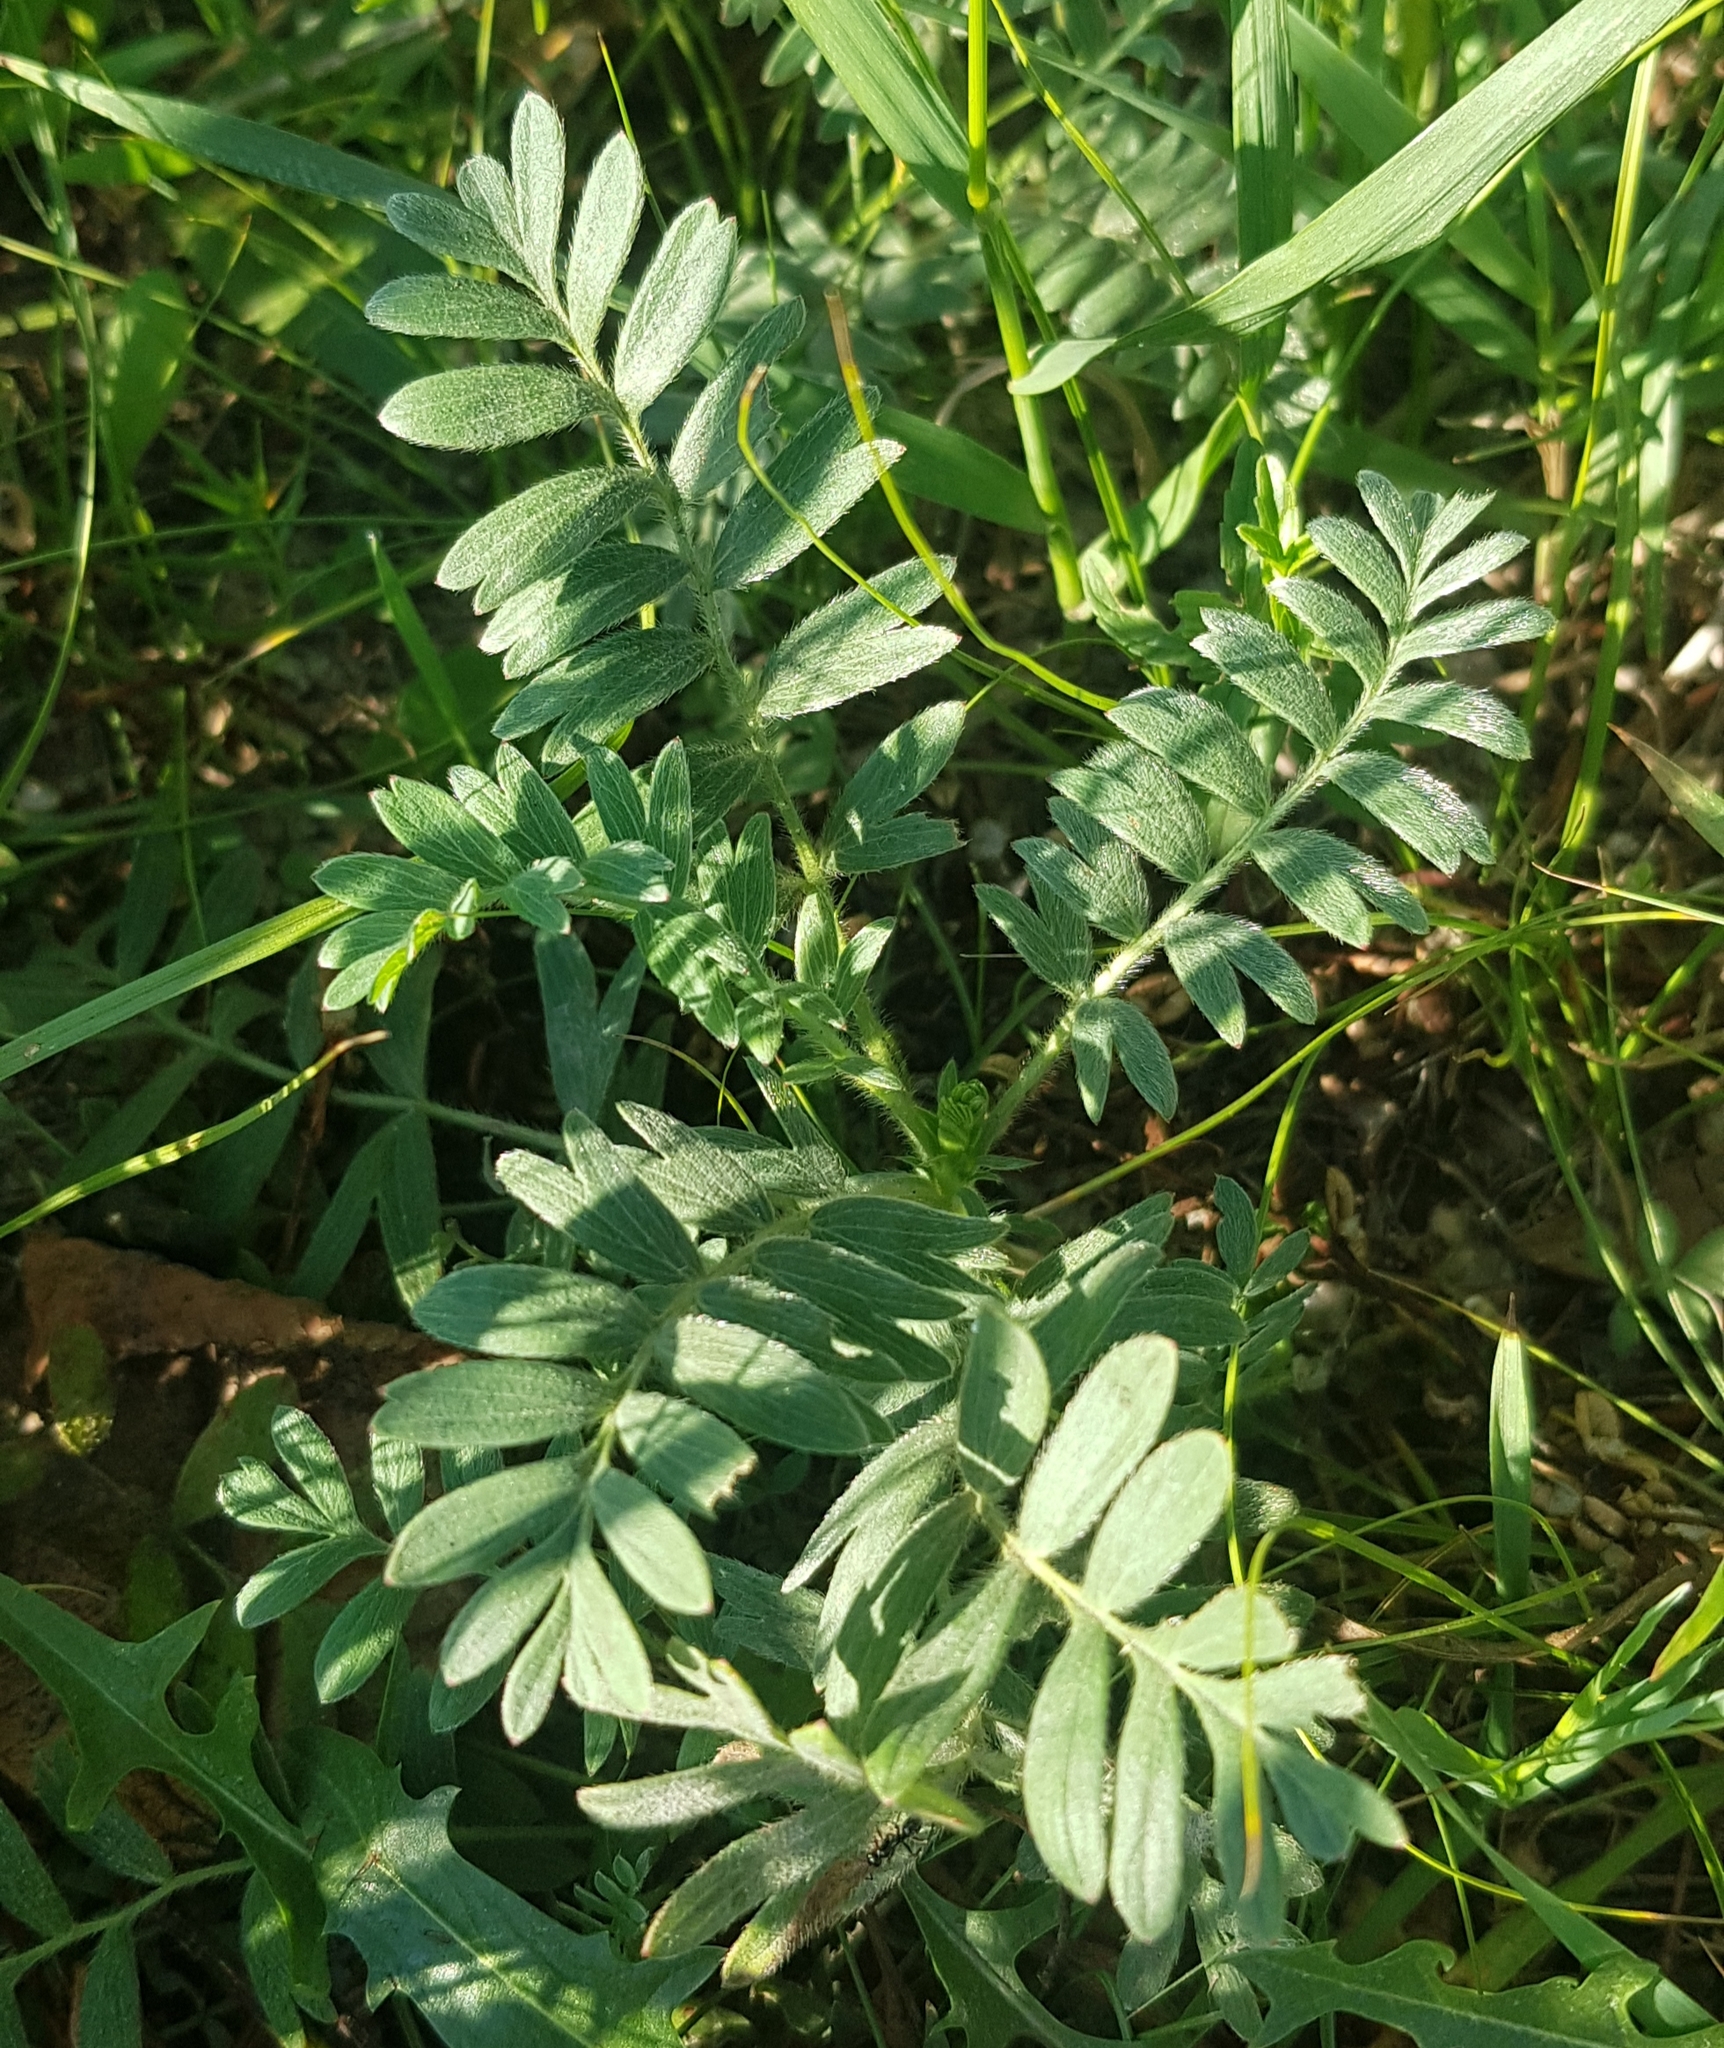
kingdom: Plantae
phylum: Tracheophyta
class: Magnoliopsida
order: Rosales
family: Rosaceae
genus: Sibbaldianthe
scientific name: Sibbaldianthe bifurca
